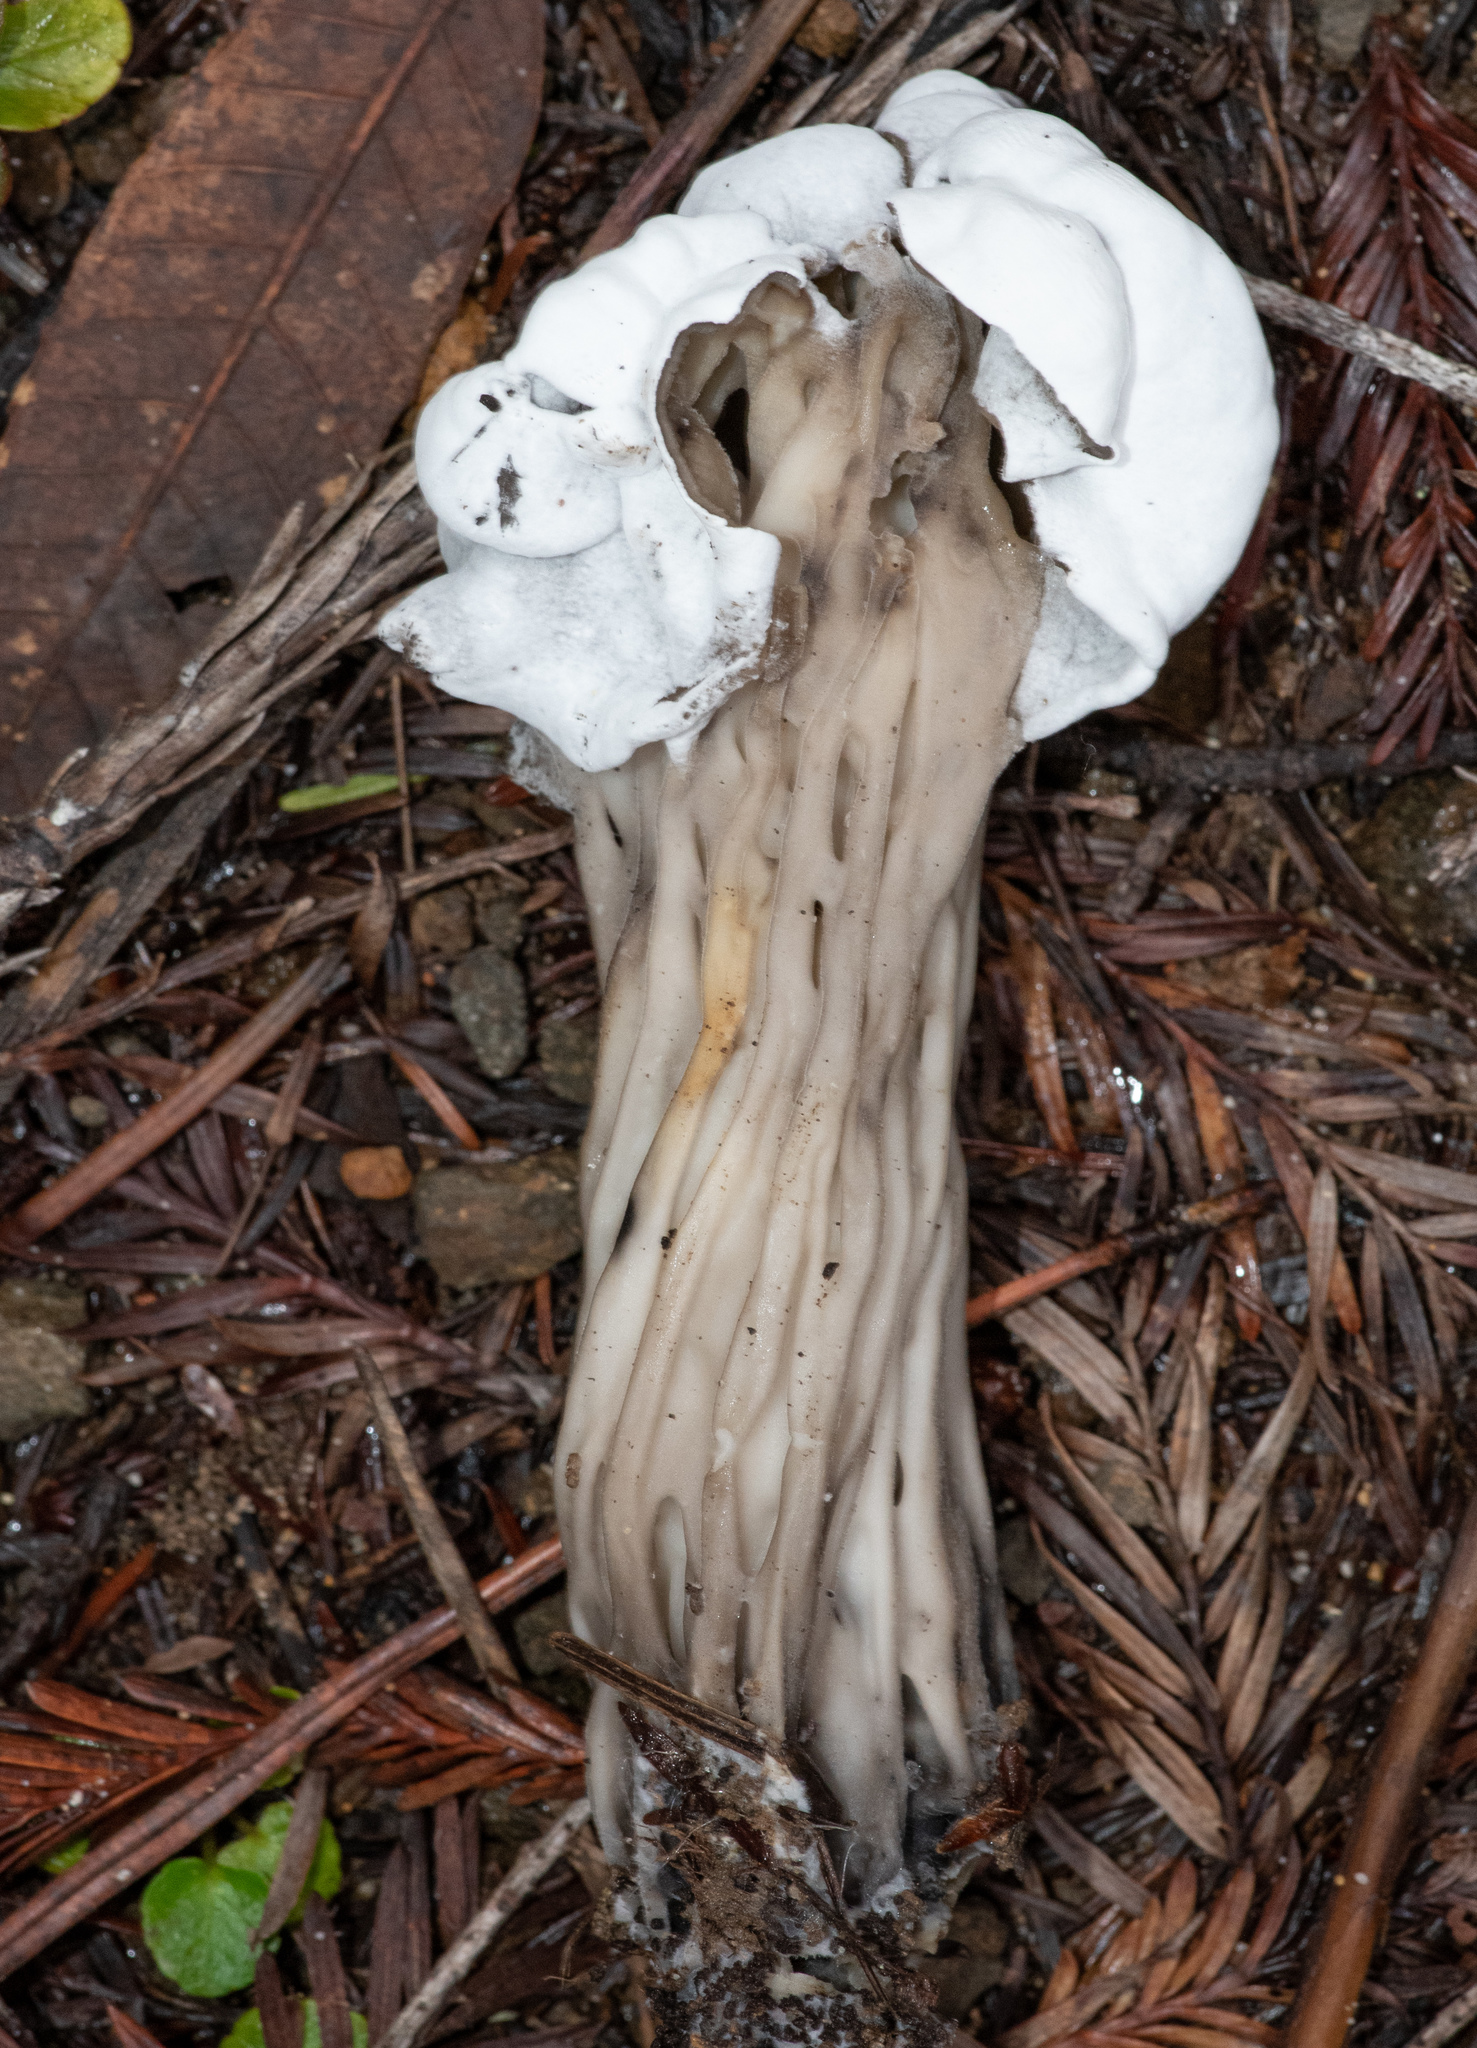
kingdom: Fungi
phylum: Ascomycota
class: Sordariomycetes
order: Hypocreales
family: Hypocreaceae
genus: Hypomyces
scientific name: Hypomyces cervinus
